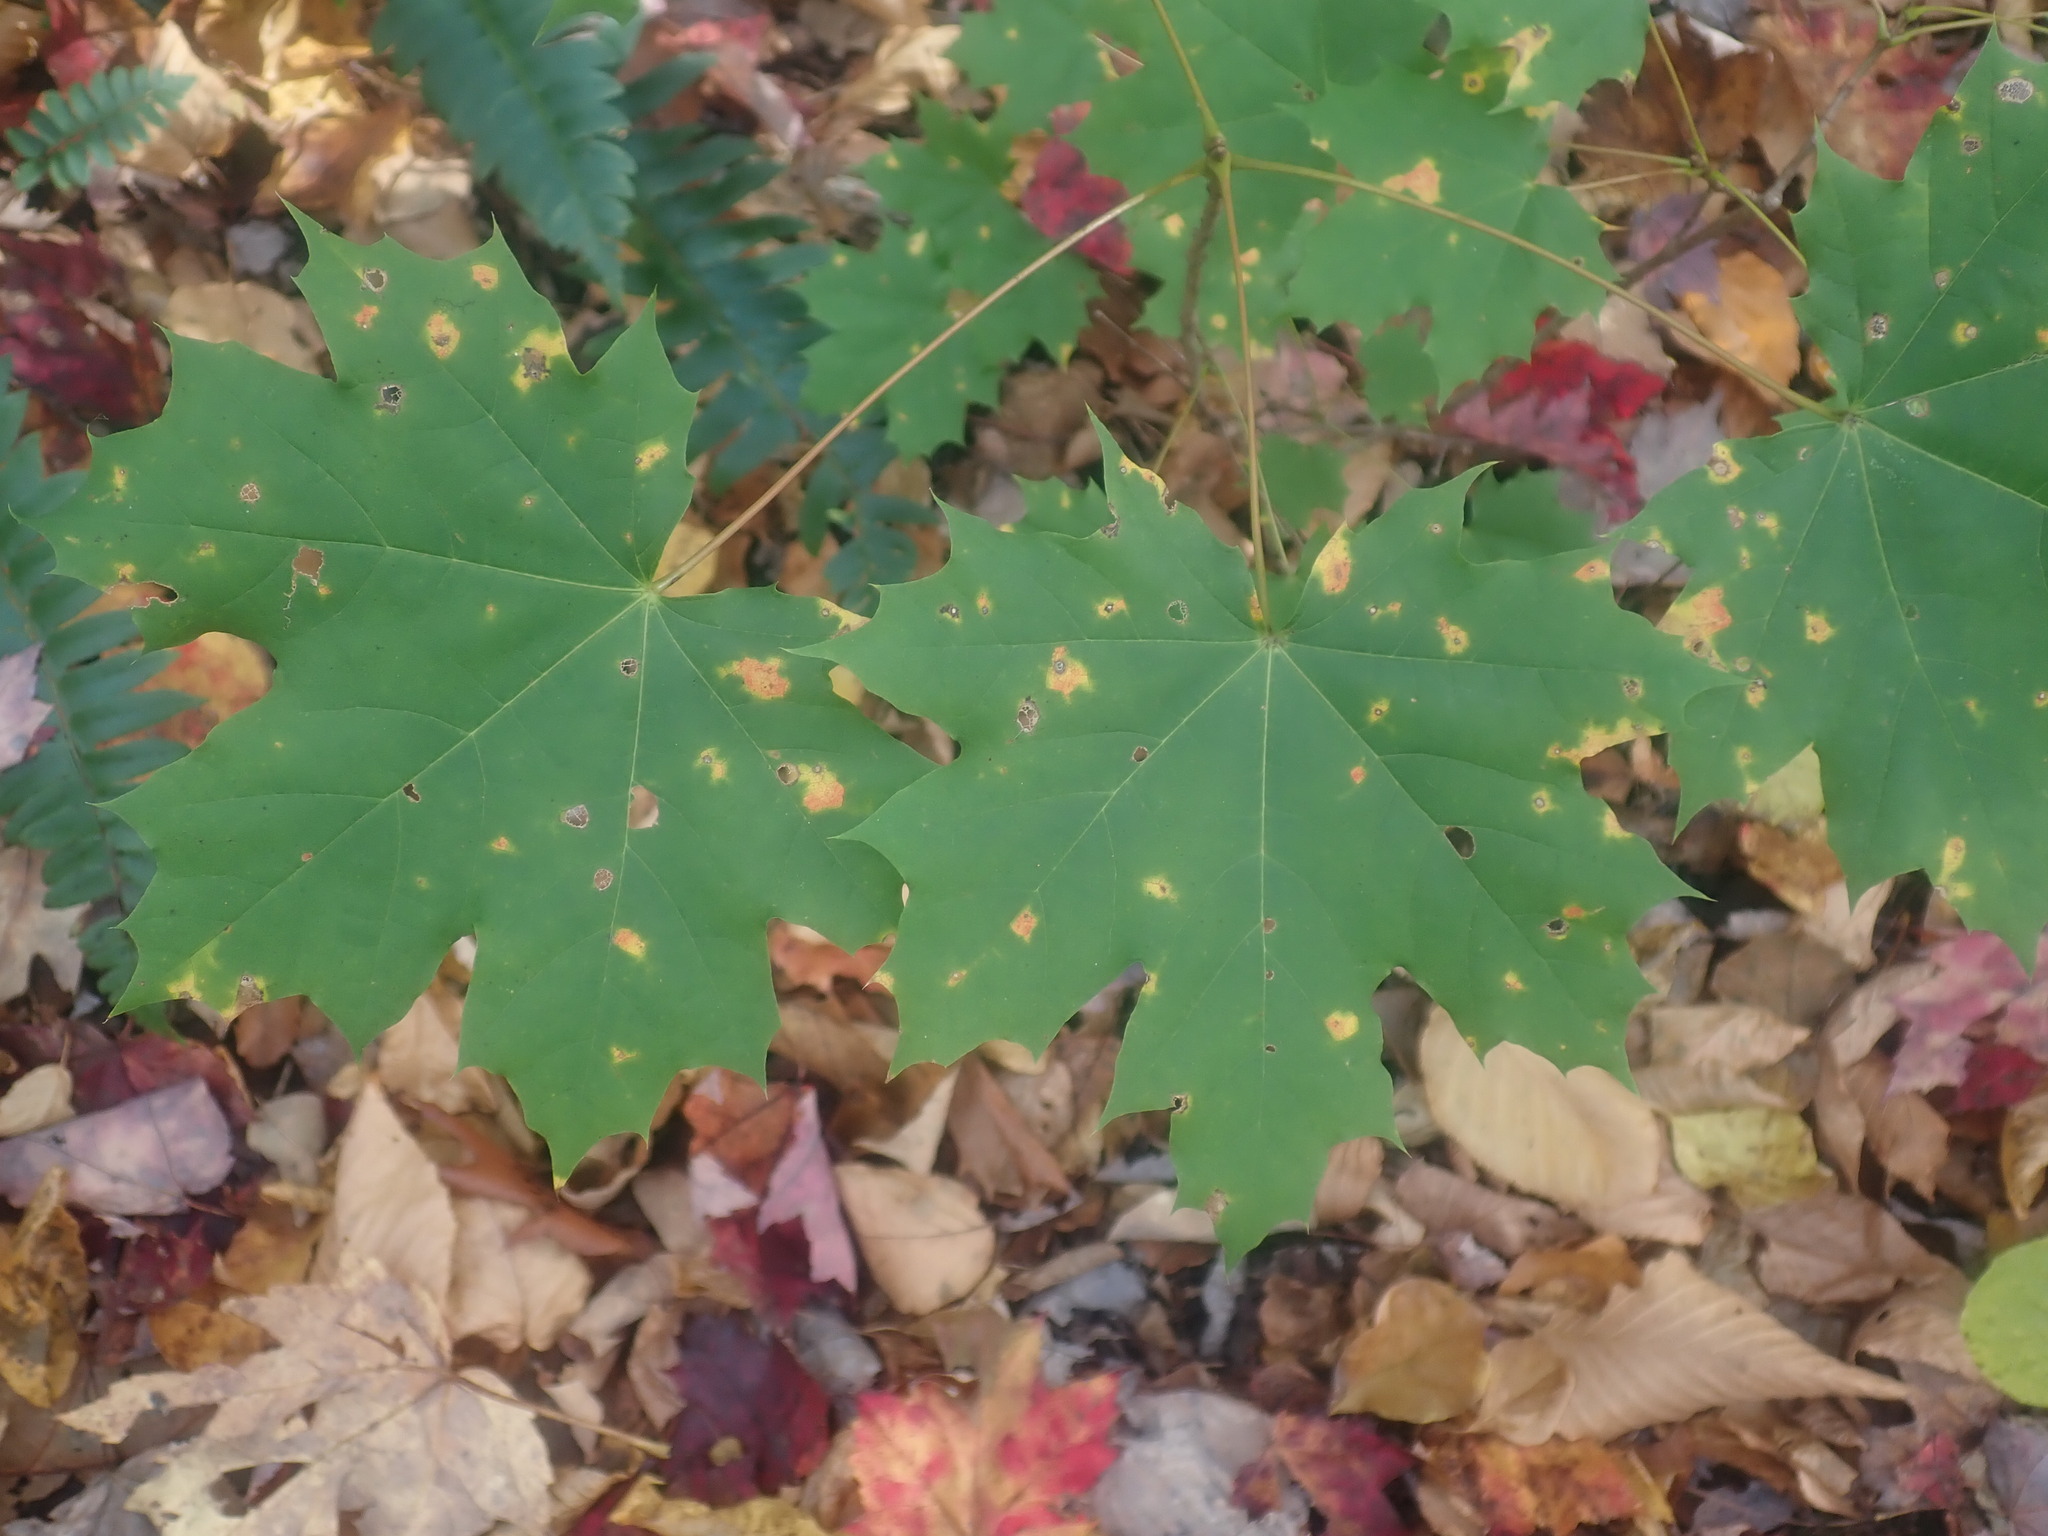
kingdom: Plantae
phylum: Tracheophyta
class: Magnoliopsida
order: Sapindales
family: Sapindaceae
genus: Acer
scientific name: Acer platanoides
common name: Norway maple
